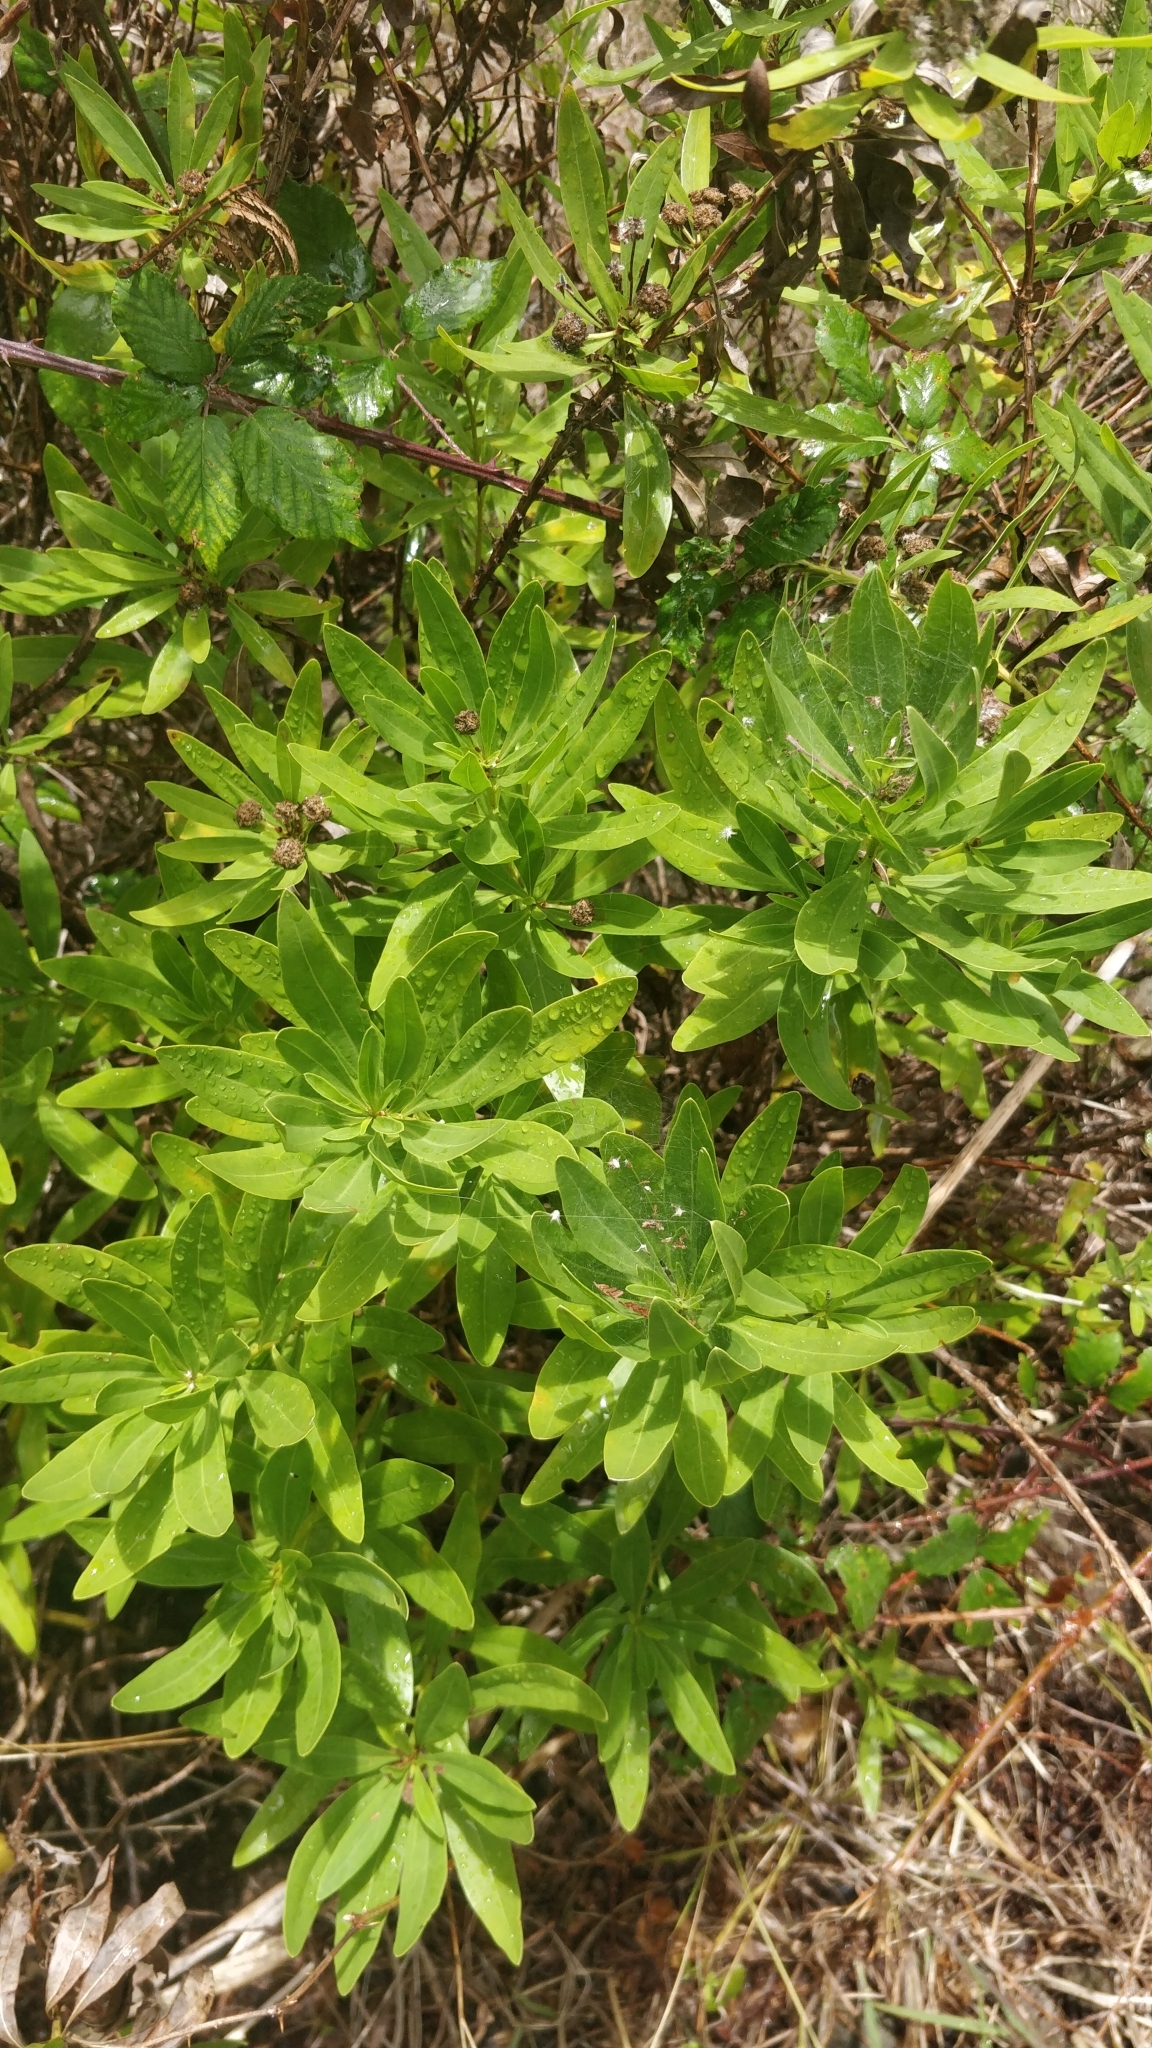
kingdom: Plantae
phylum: Tracheophyta
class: Magnoliopsida
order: Lamiales
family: Plantaginaceae
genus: Globularia
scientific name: Globularia salicina
